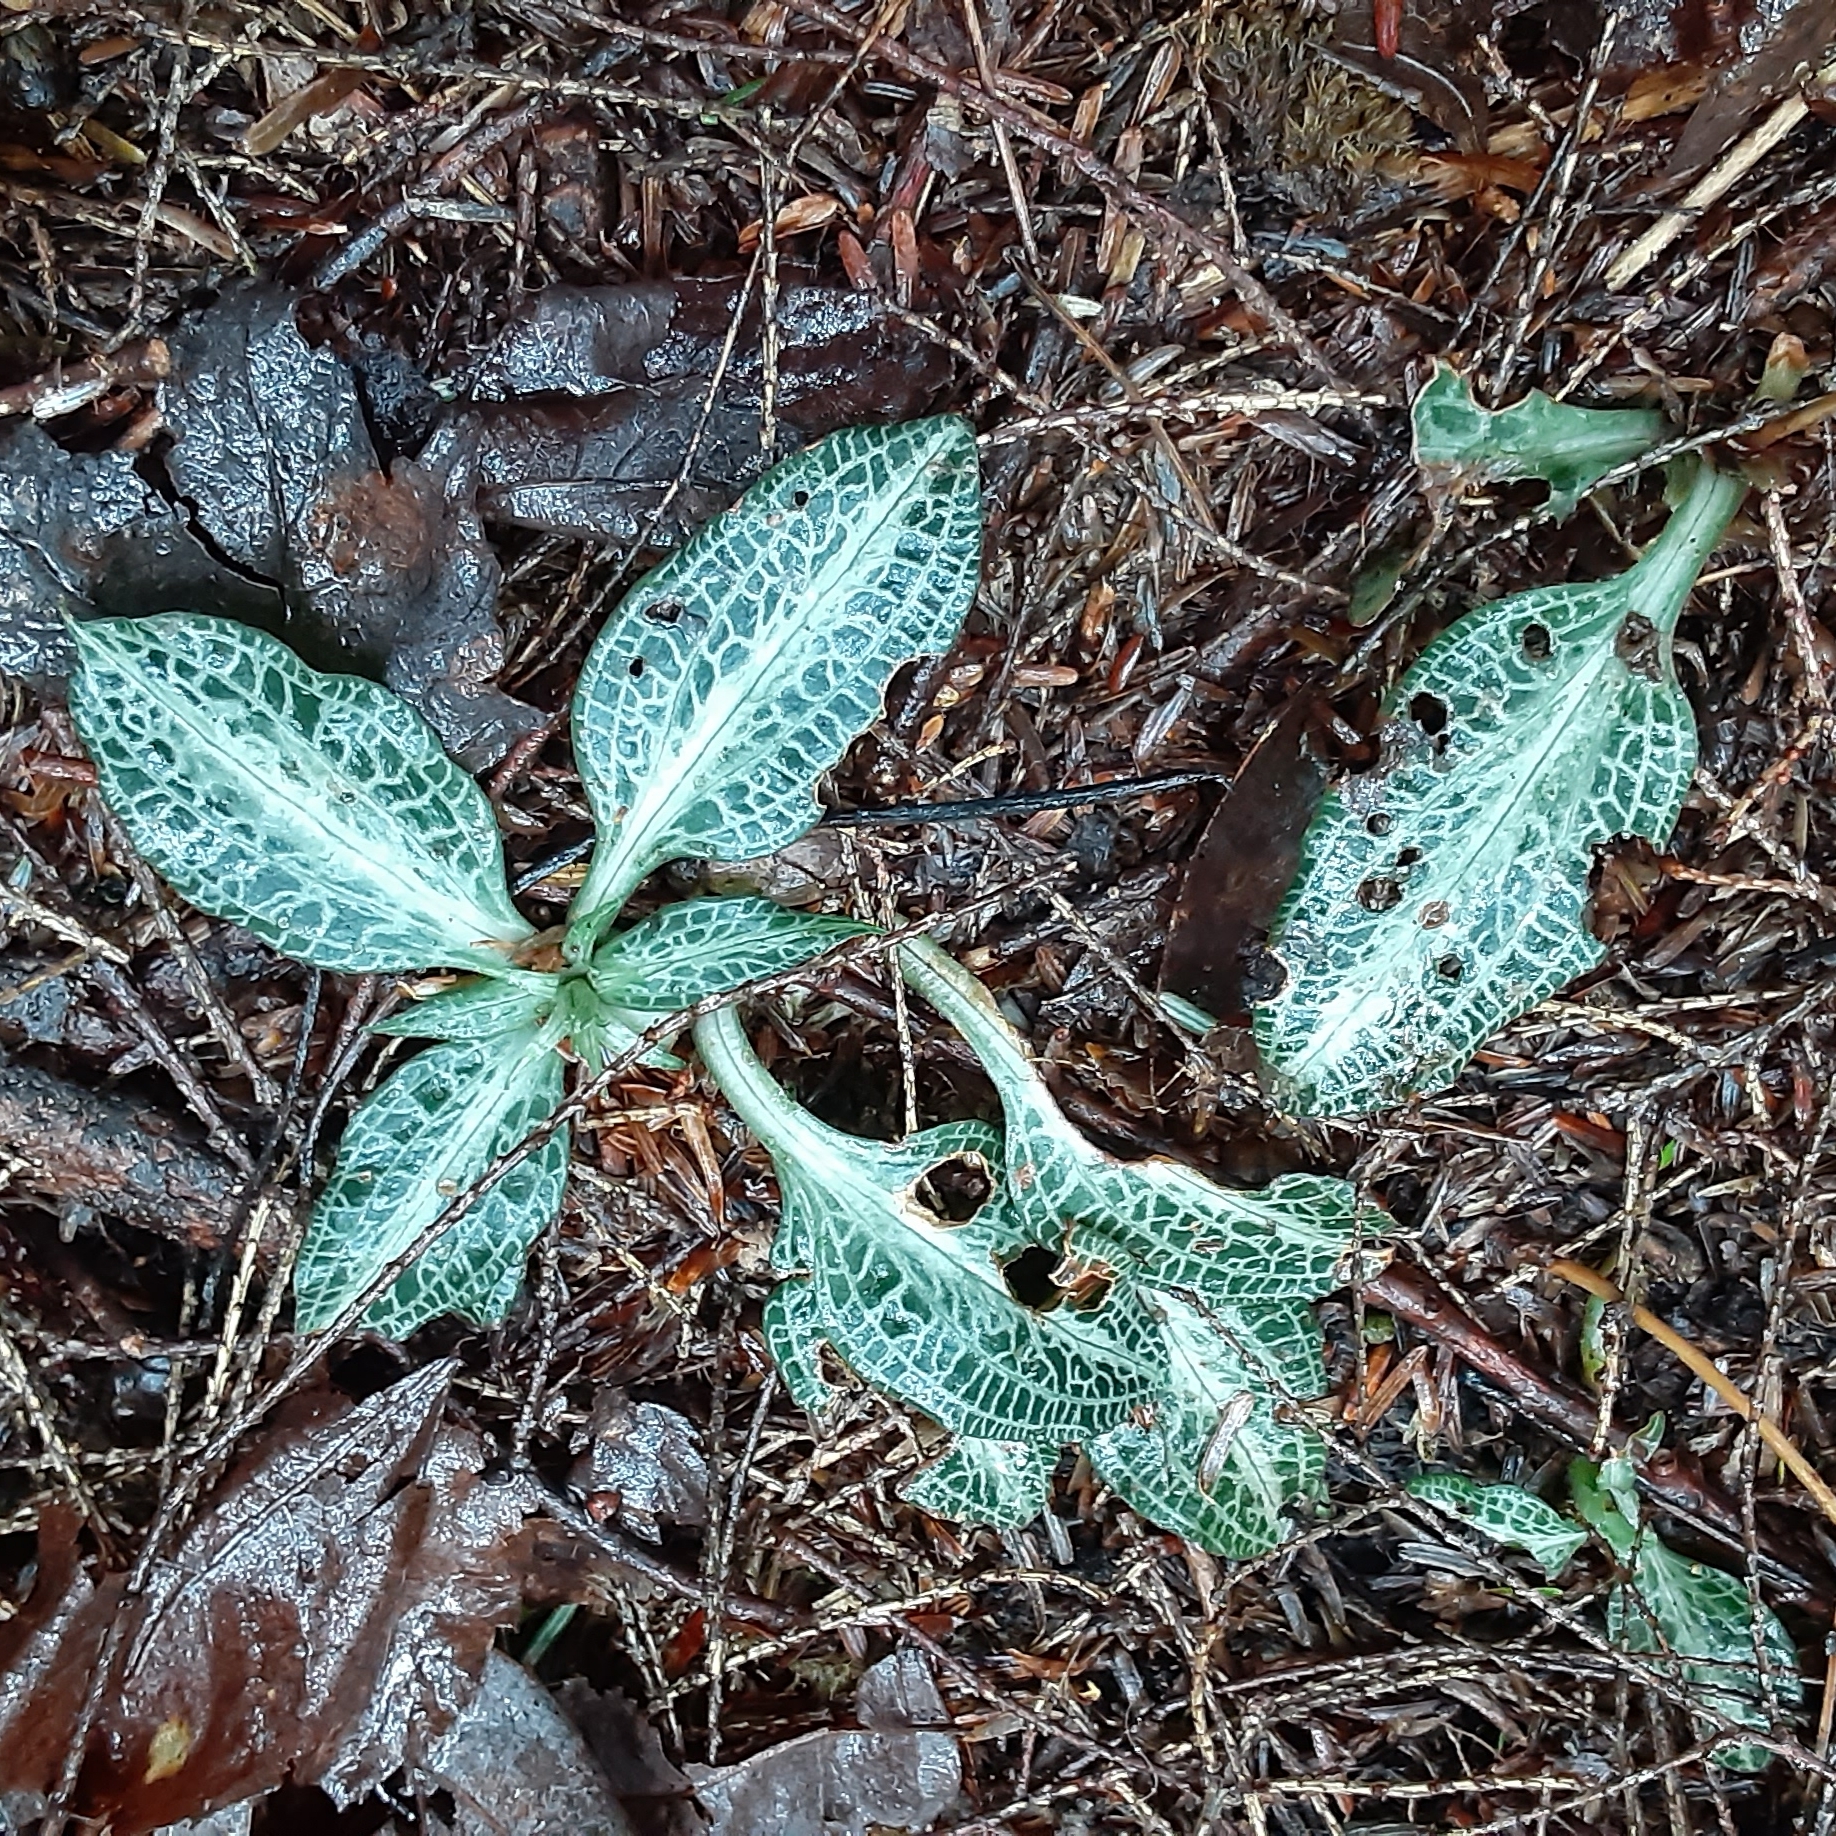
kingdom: Plantae
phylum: Tracheophyta
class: Liliopsida
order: Asparagales
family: Orchidaceae
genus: Goodyera
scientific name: Goodyera pubescens
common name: Downy rattlesnake-plantain
